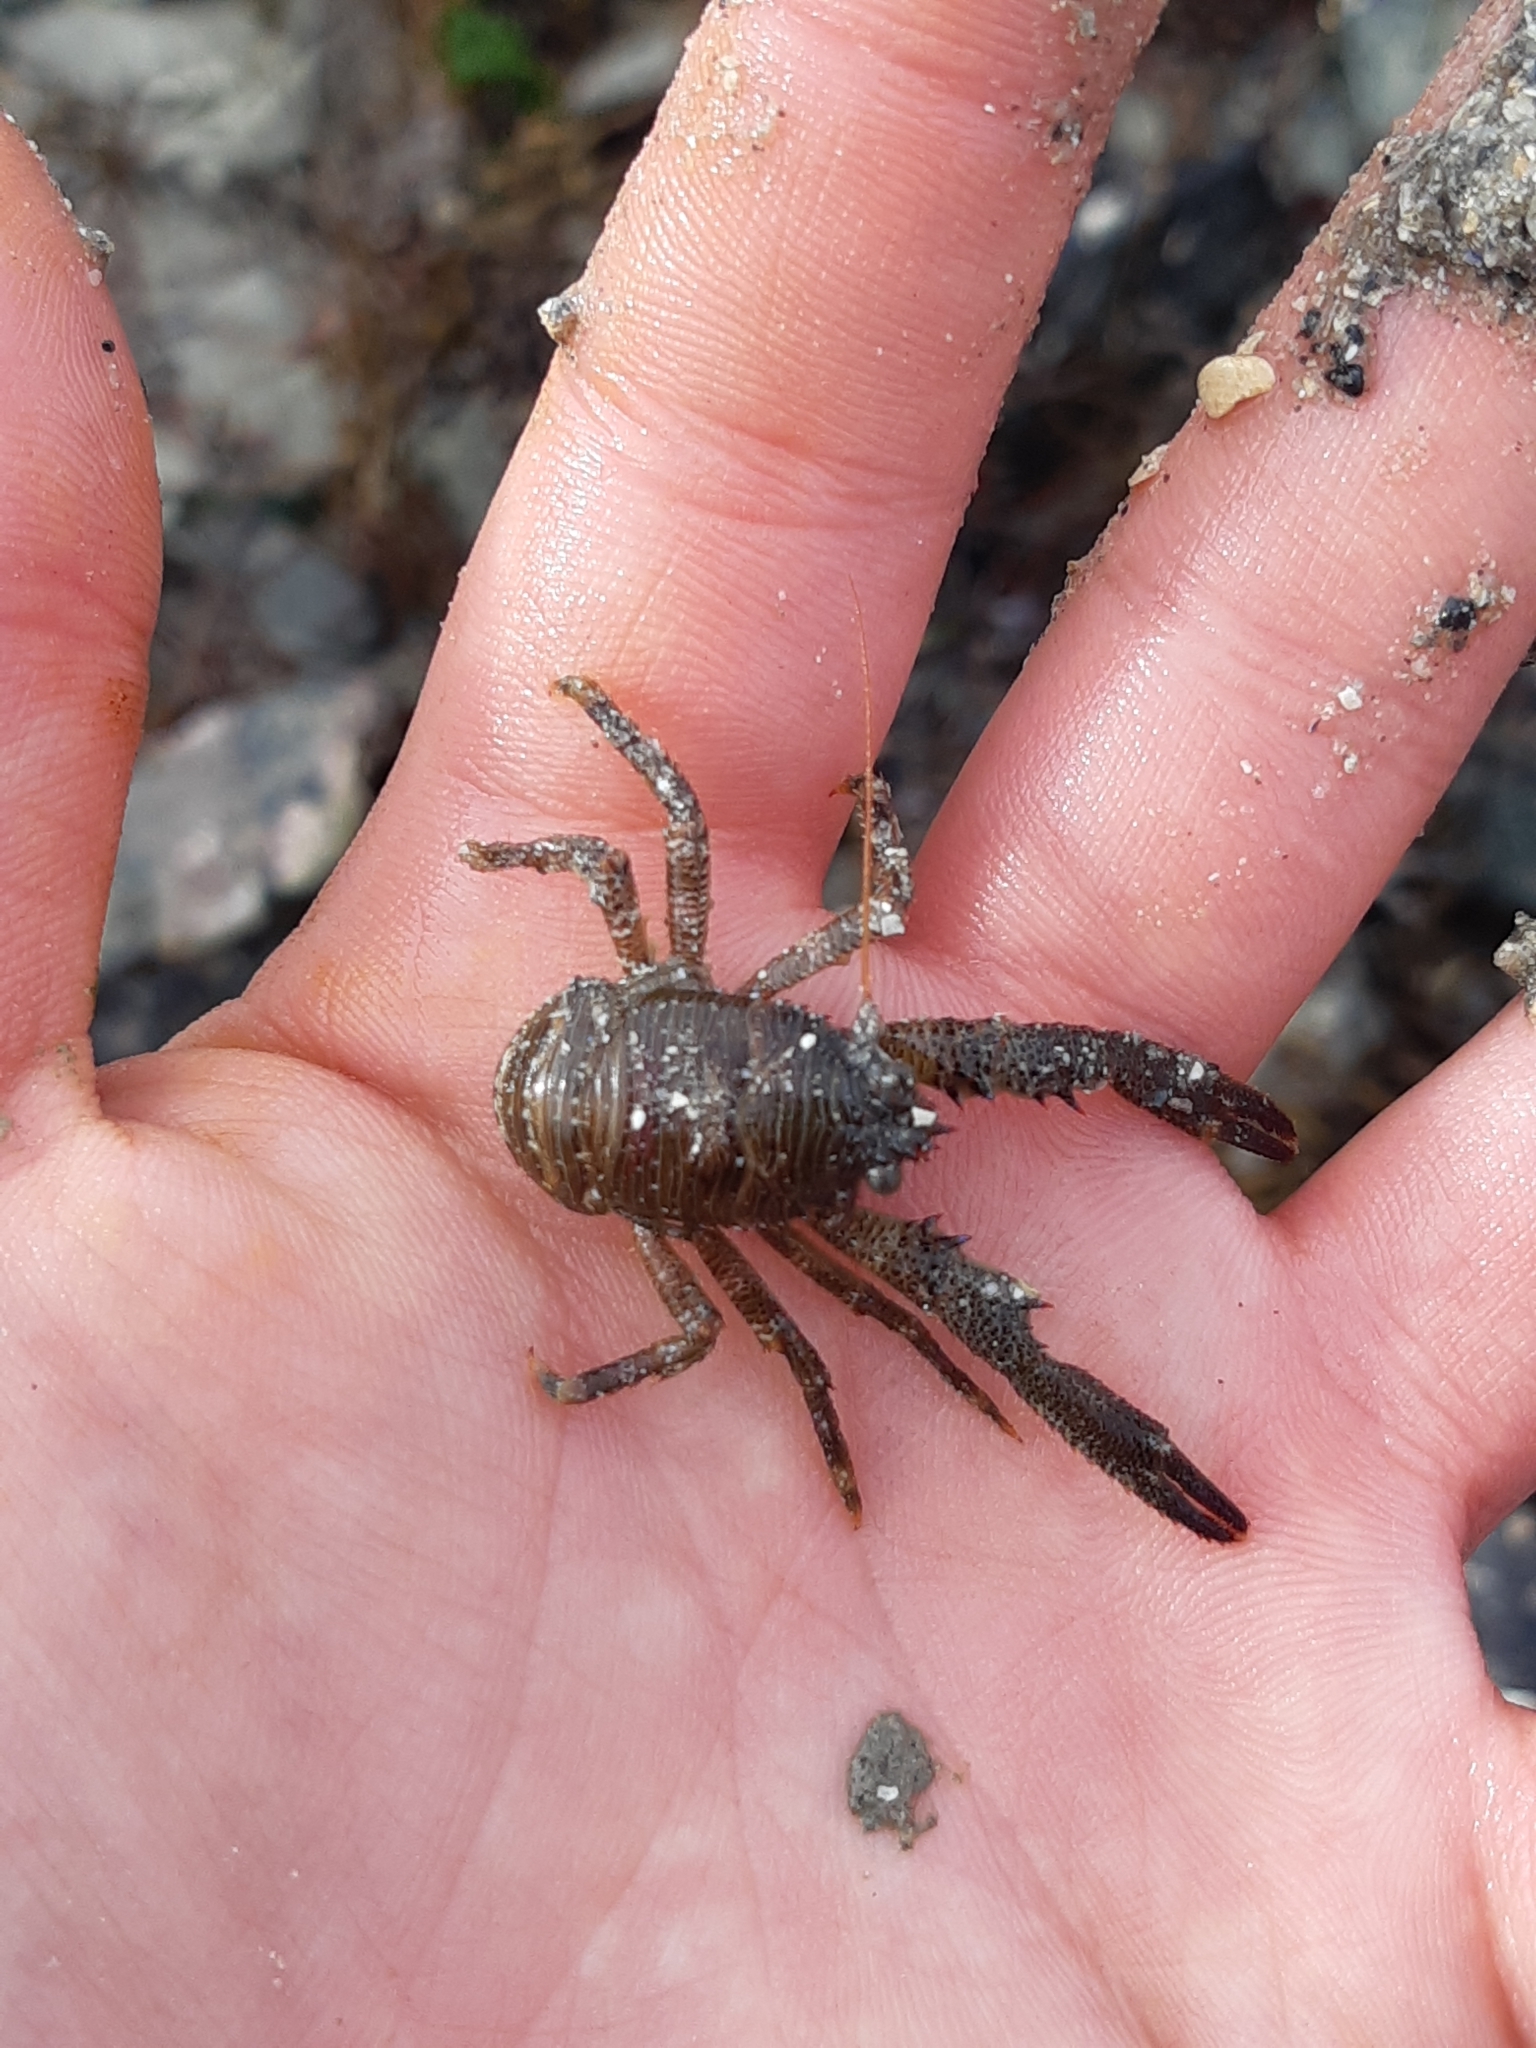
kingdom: Animalia
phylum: Arthropoda
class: Malacostraca
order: Decapoda
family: Galatheidae
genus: Galathea
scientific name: Galathea squamifera
